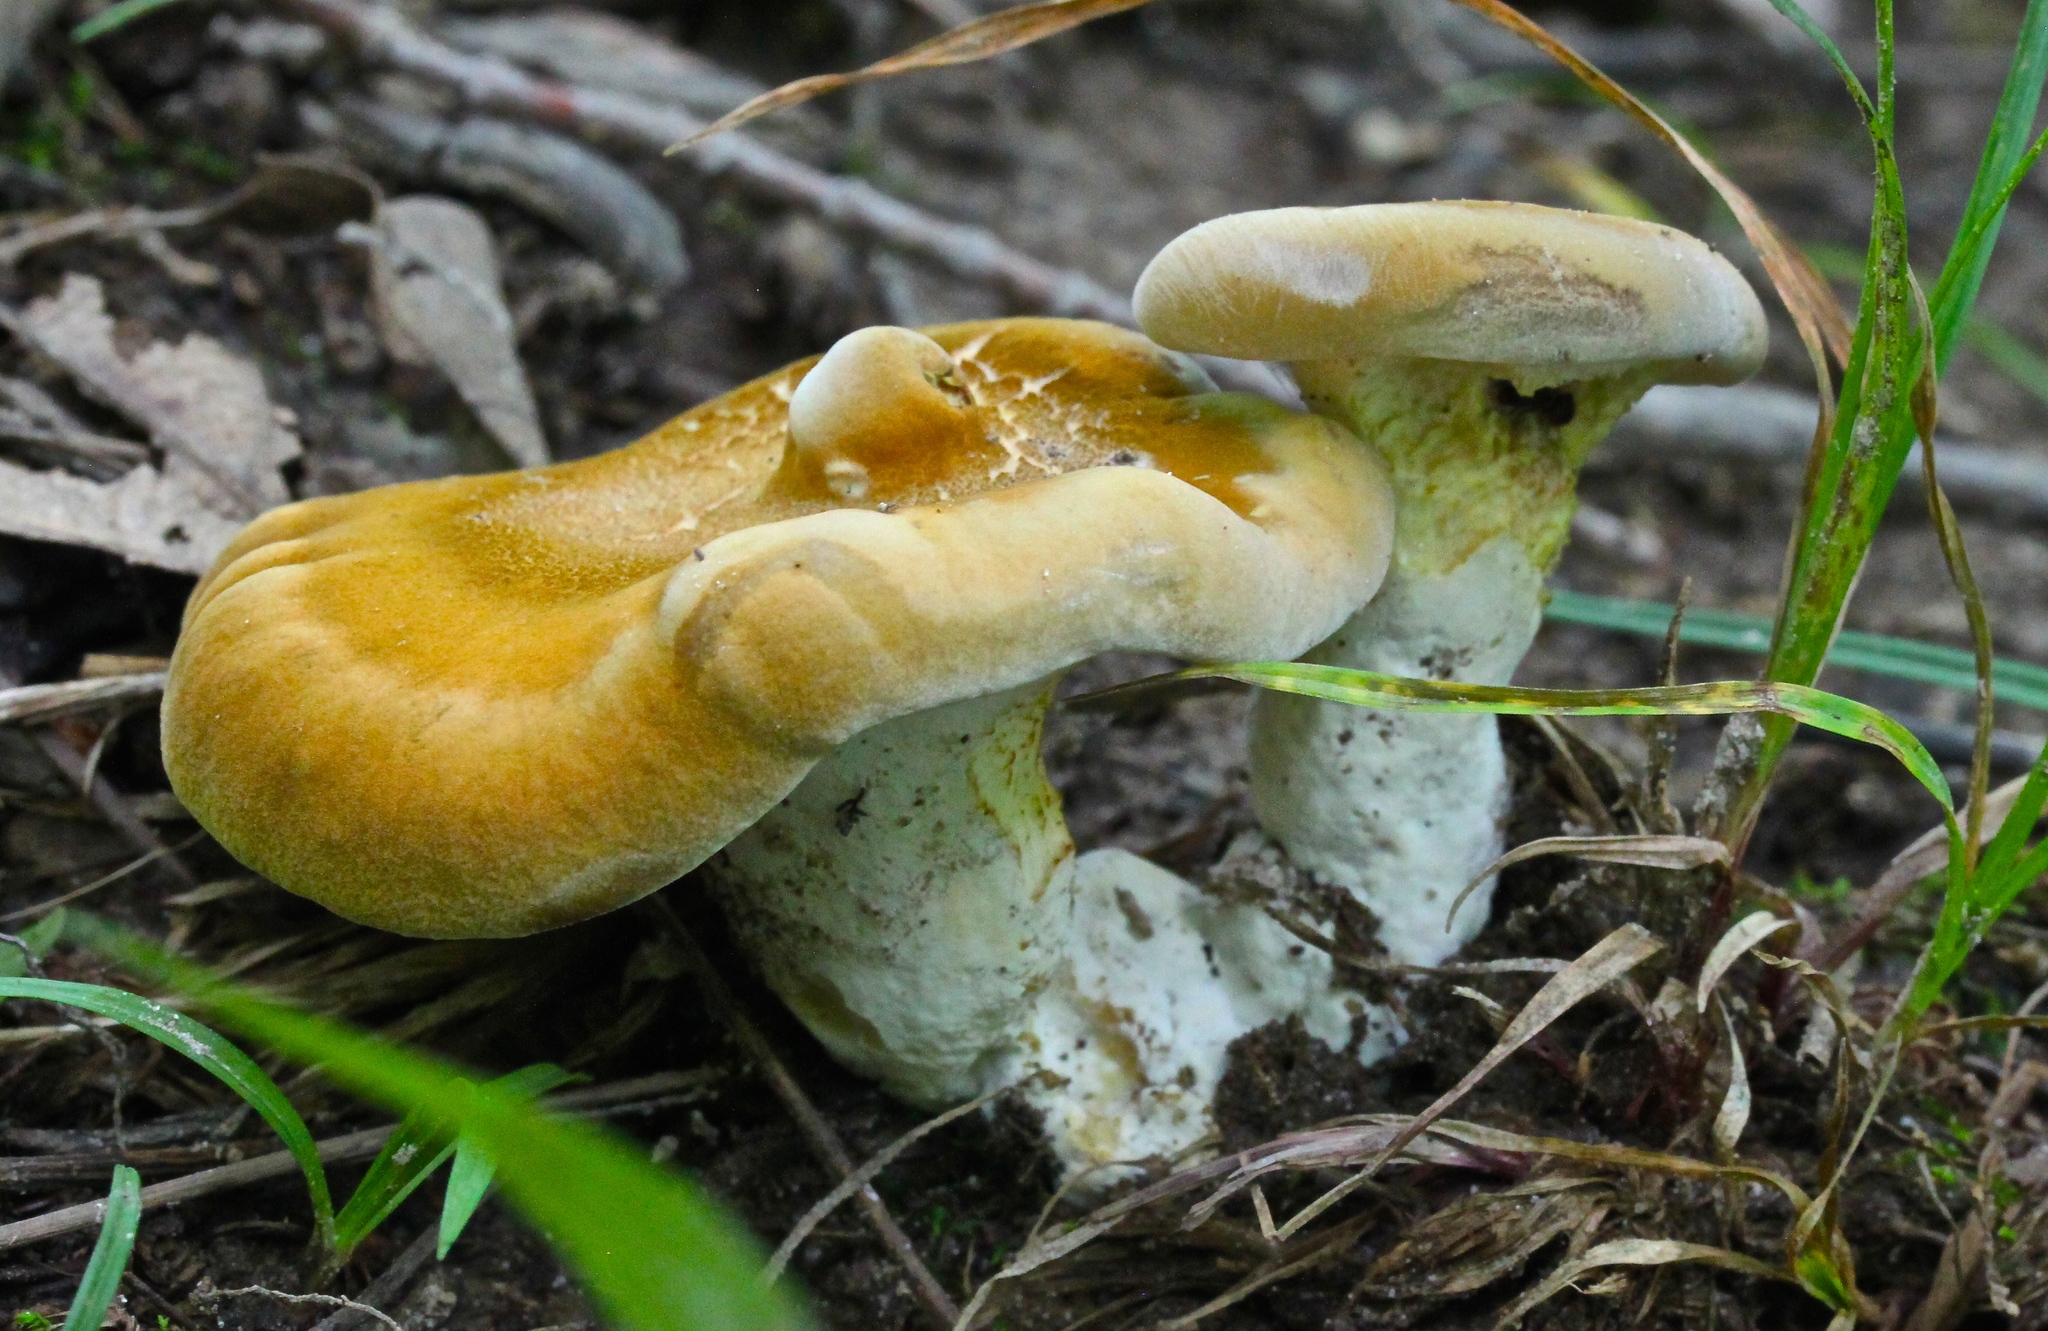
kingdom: Fungi
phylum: Basidiomycota
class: Agaricomycetes
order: Russulales
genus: Laeticutis
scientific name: Laeticutis cristata
